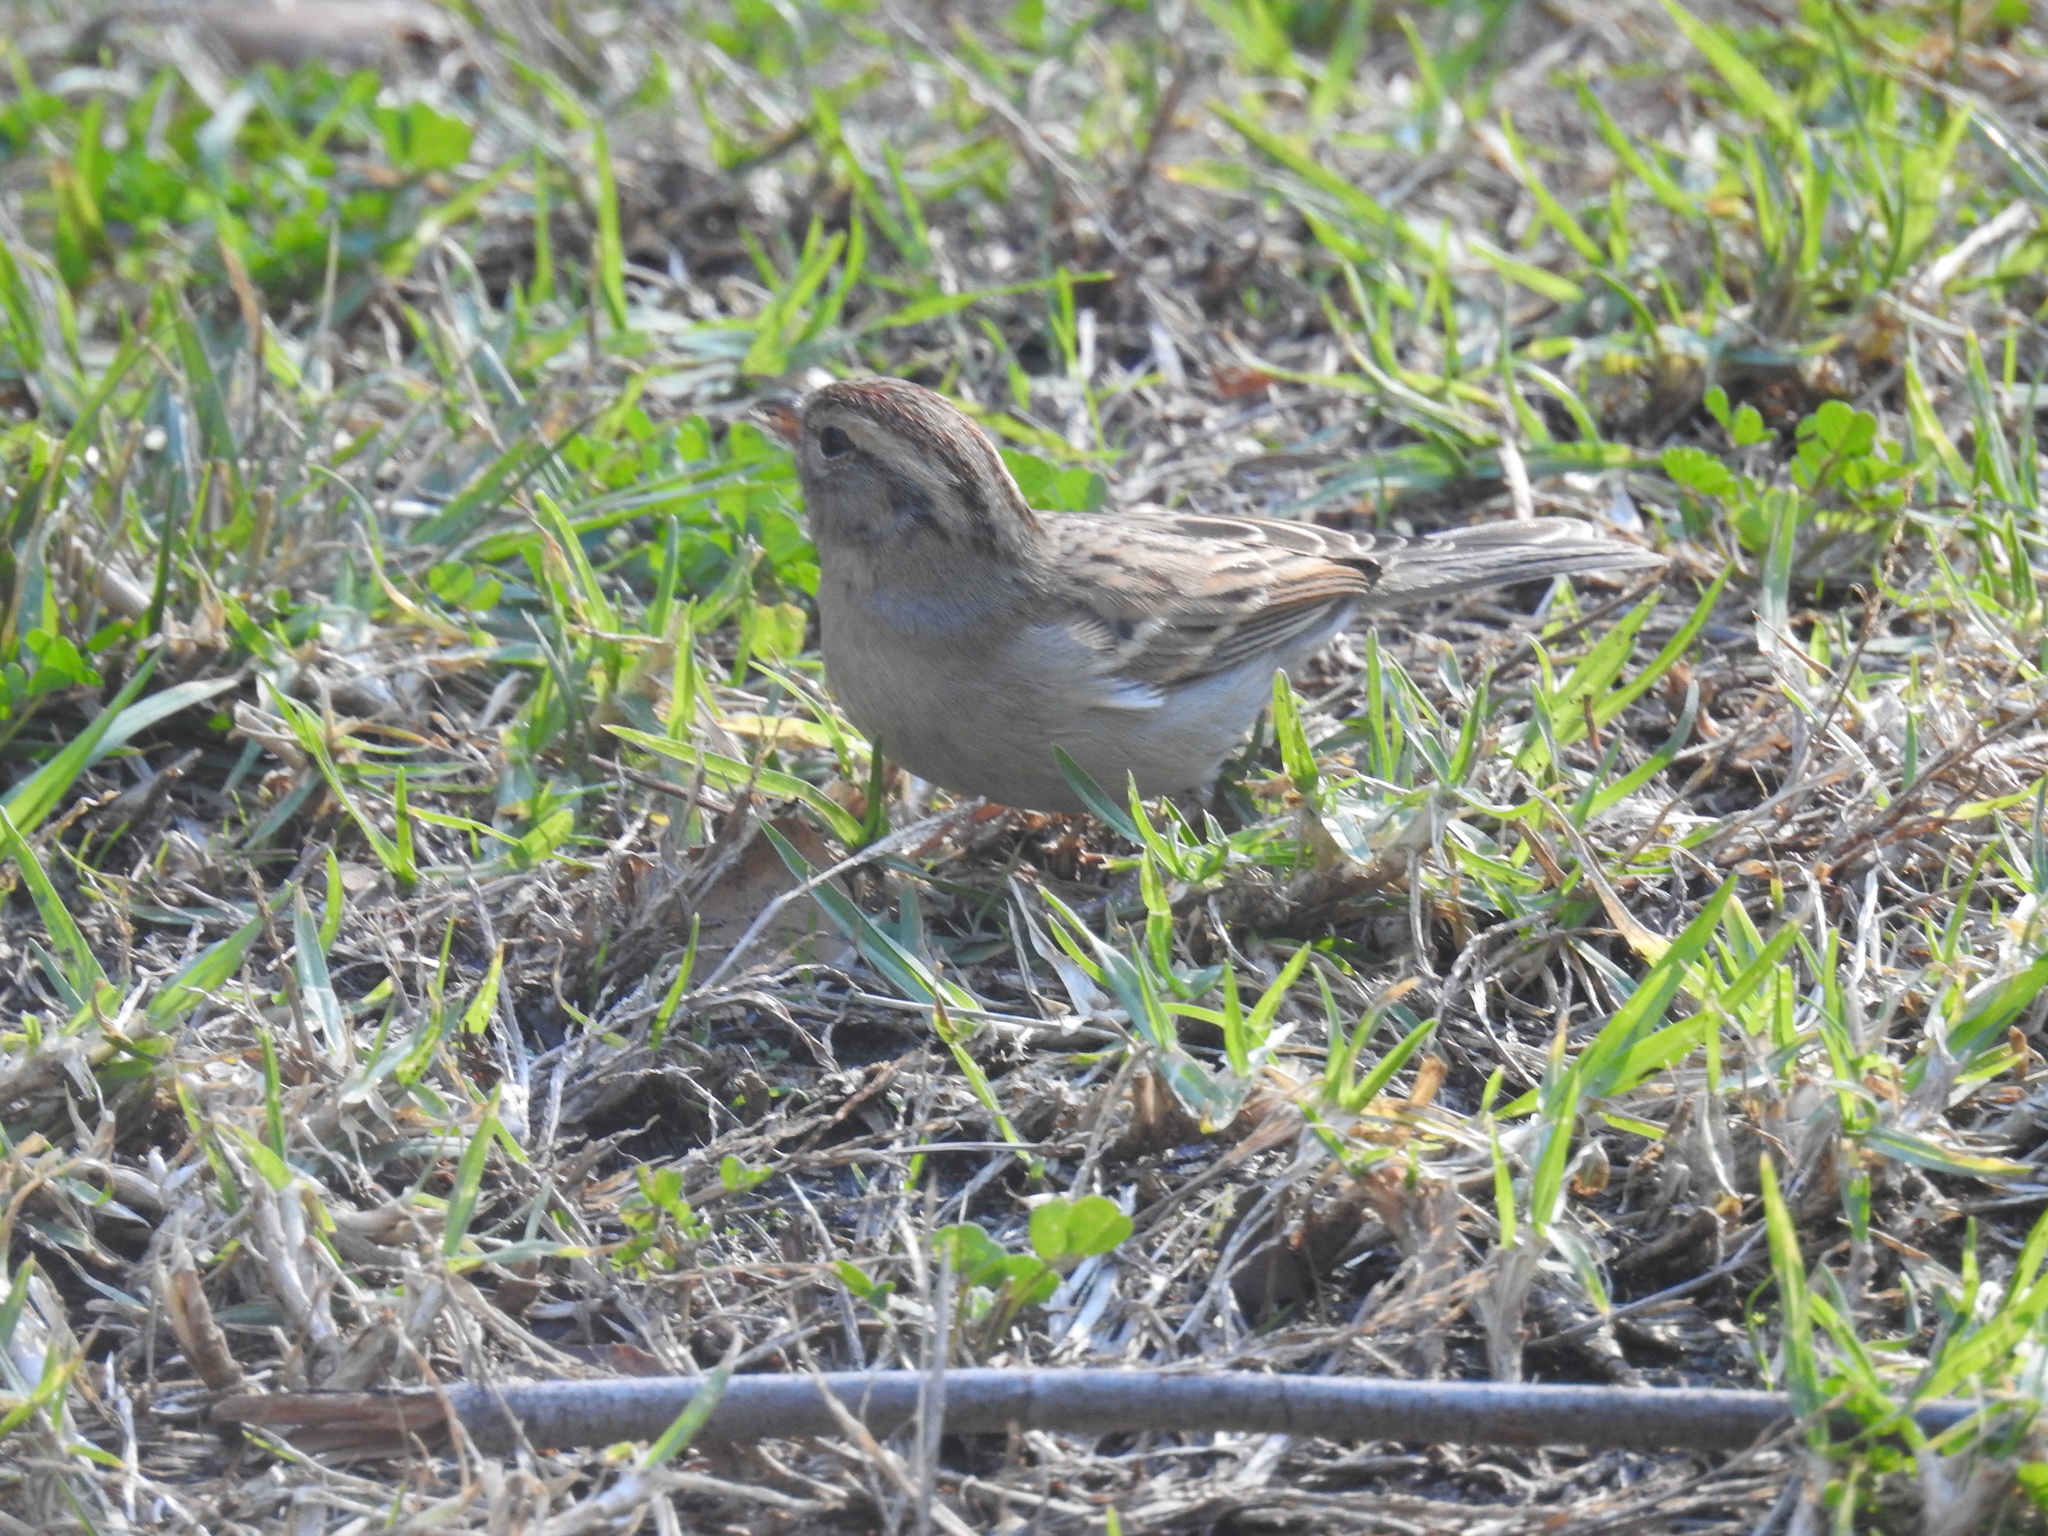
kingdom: Animalia
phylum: Chordata
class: Aves
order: Passeriformes
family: Passerellidae
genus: Spizella
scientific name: Spizella passerina
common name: Chipping sparrow
